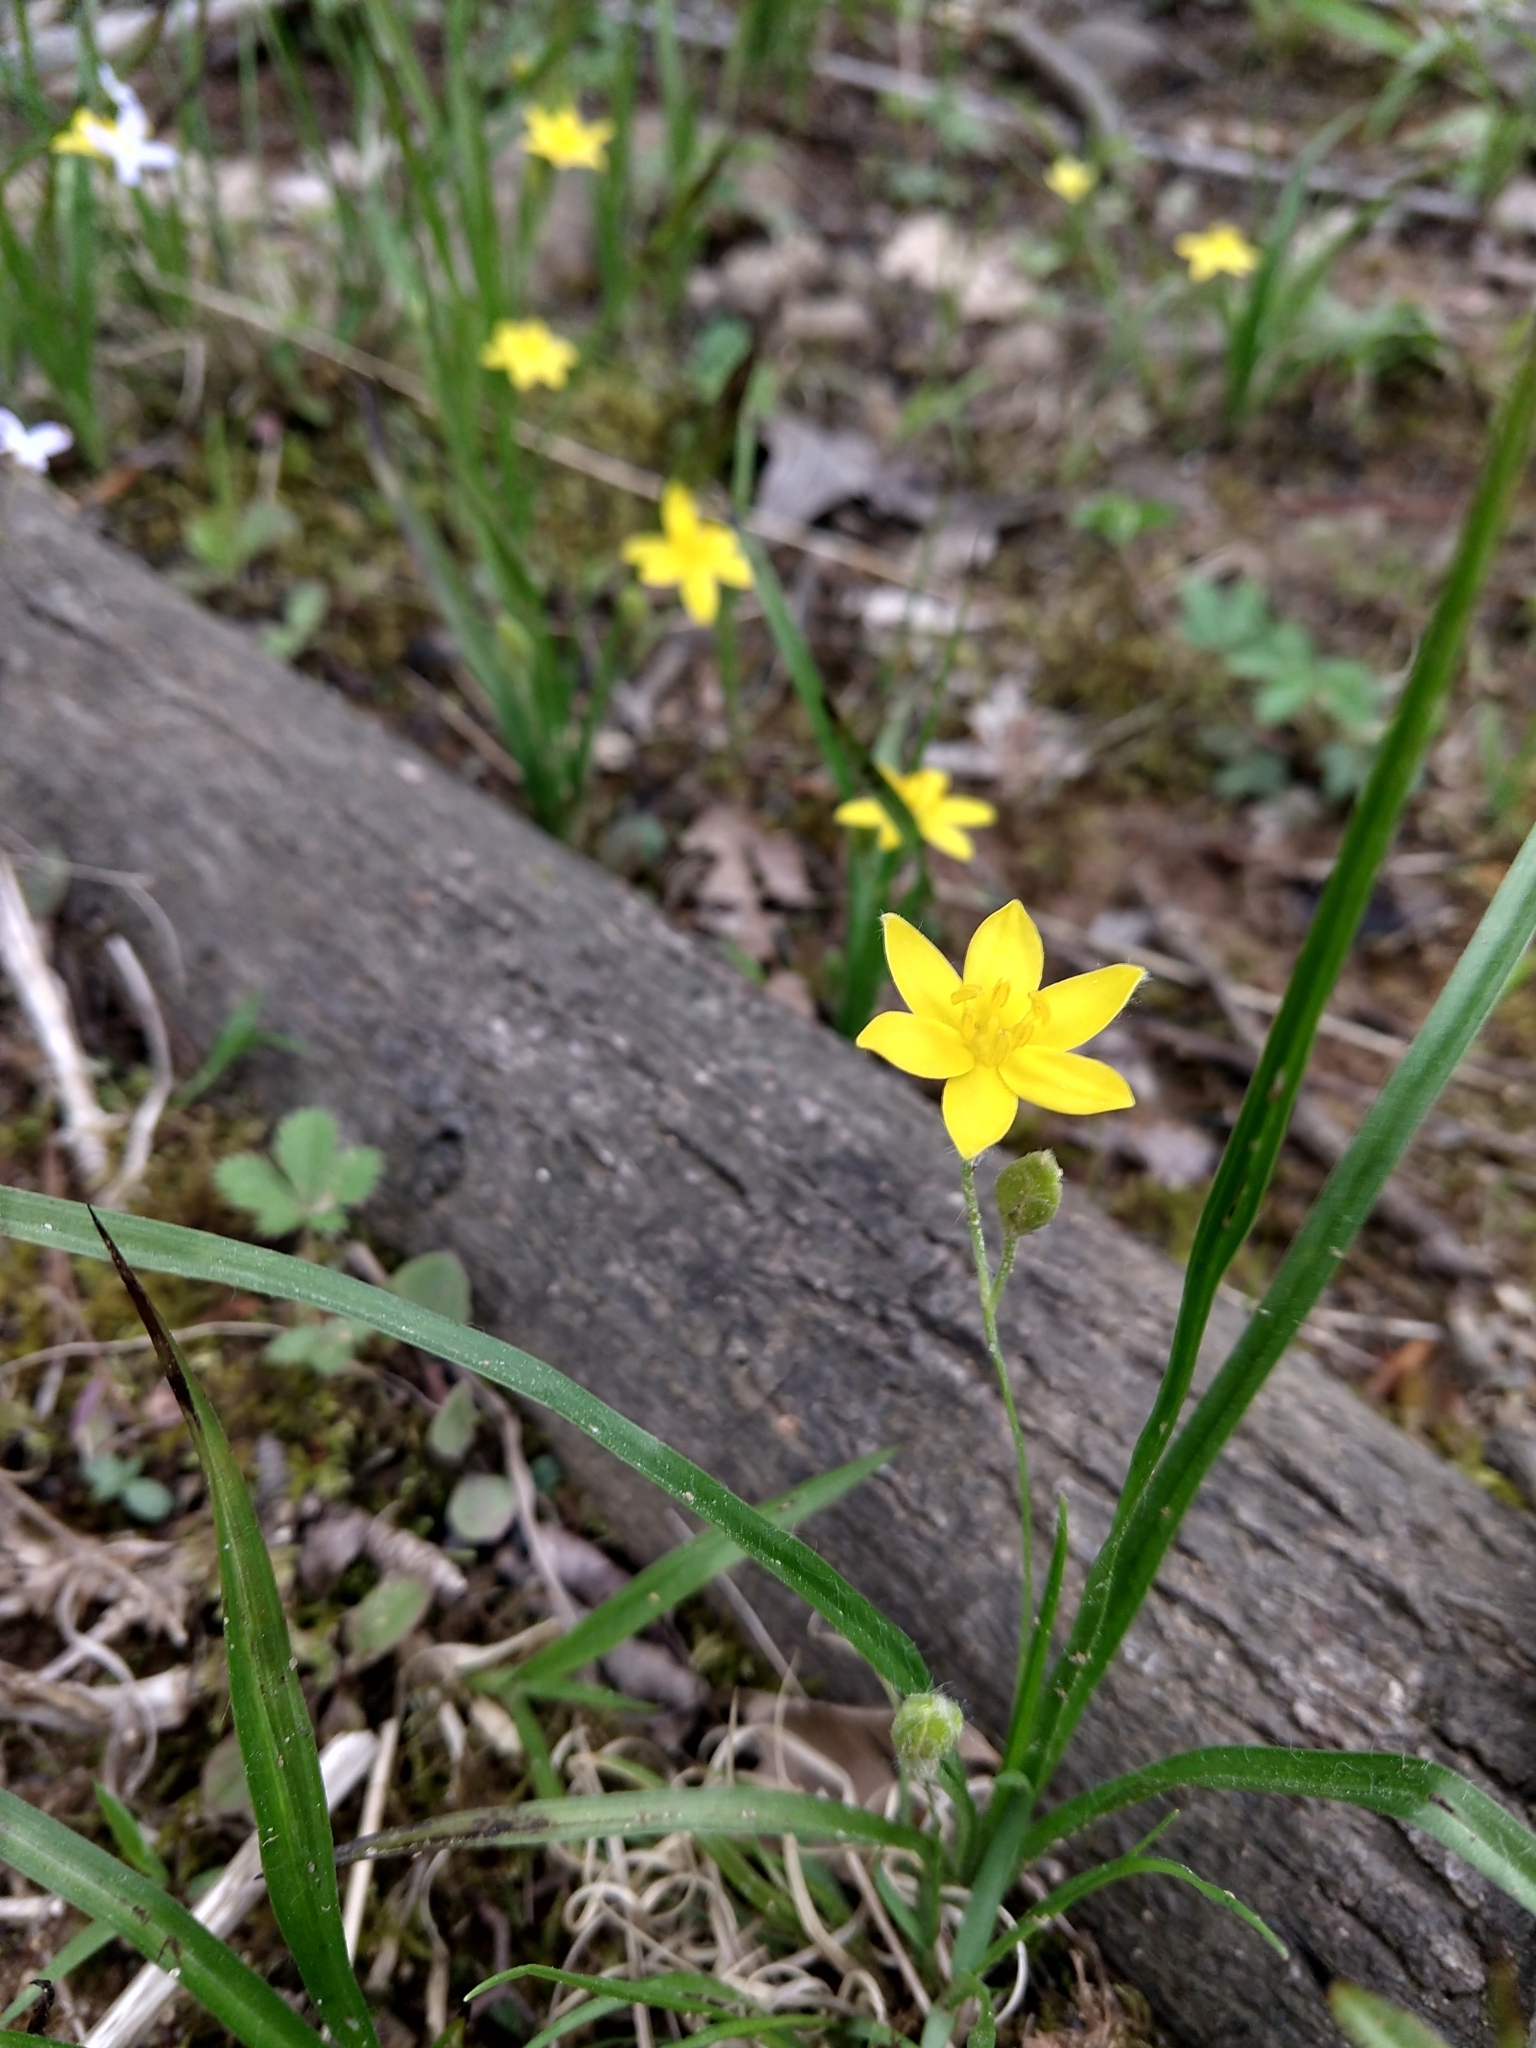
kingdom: Plantae
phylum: Tracheophyta
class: Liliopsida
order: Asparagales
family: Hypoxidaceae
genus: Hypoxis
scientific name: Hypoxis hirsuta
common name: Common goldstar
